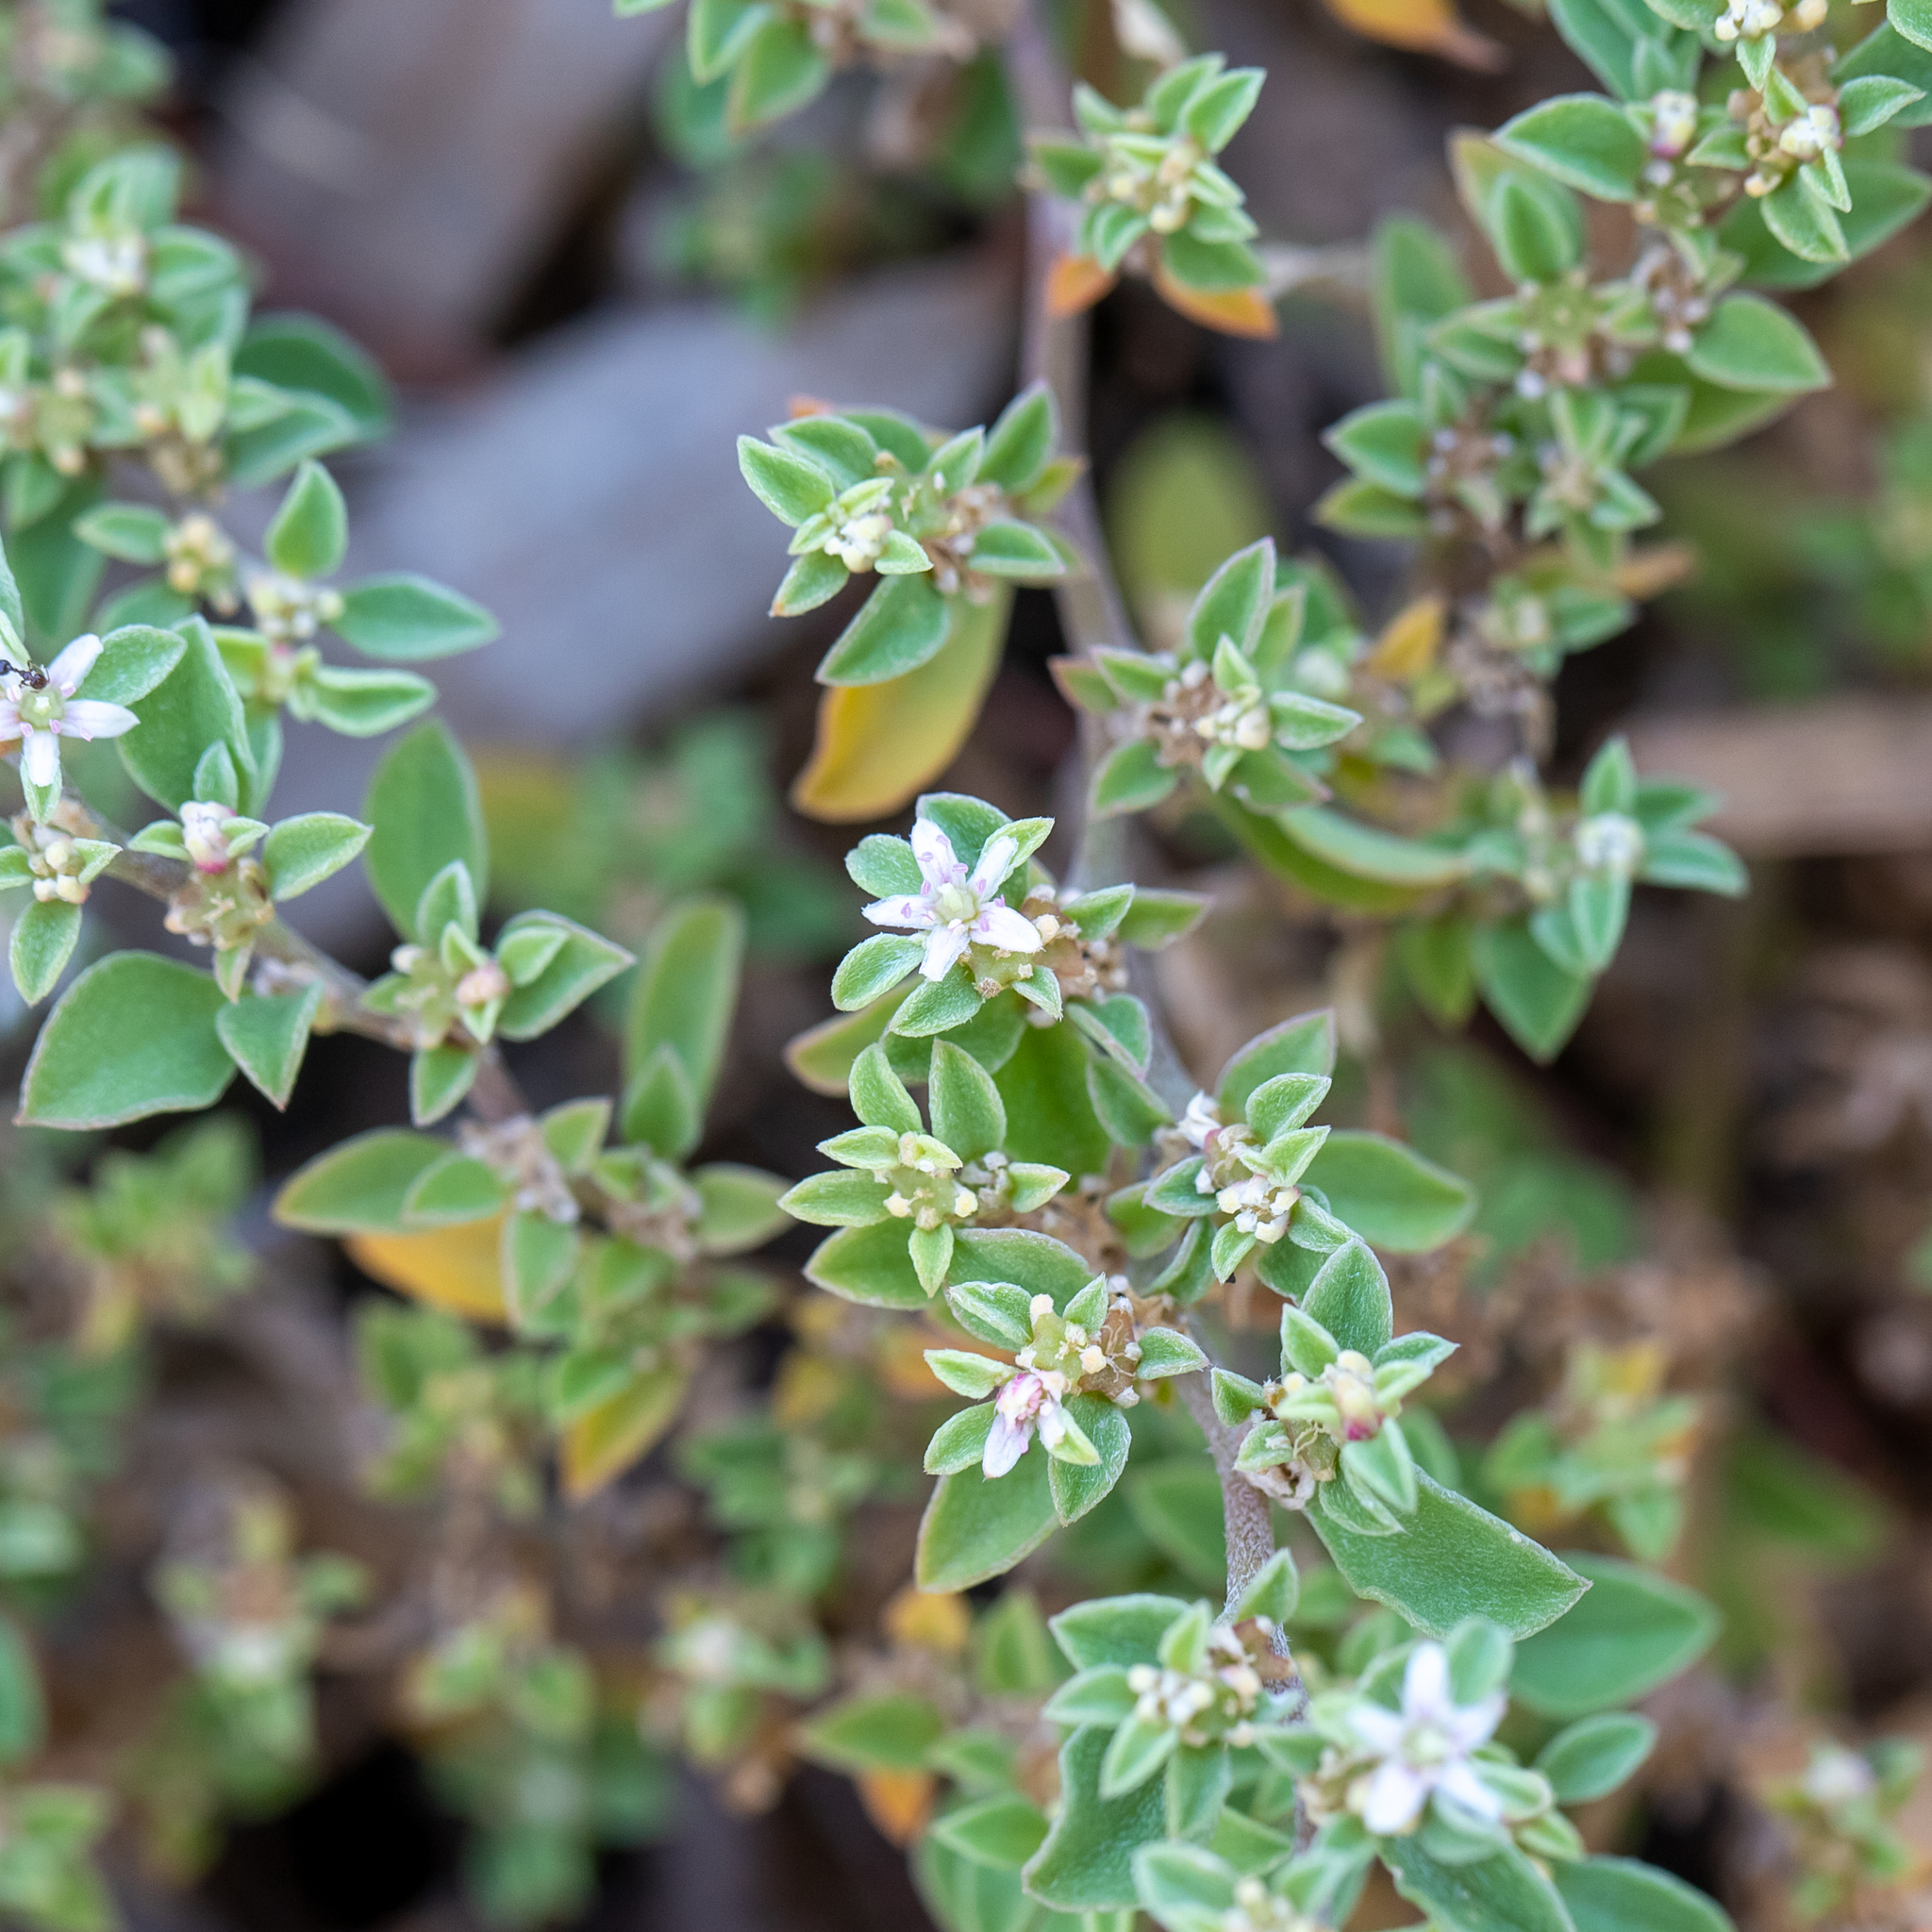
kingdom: Plantae
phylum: Tracheophyta
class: Magnoliopsida
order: Caryophyllales
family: Aizoaceae
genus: Aizoon
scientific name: Aizoon pubescens
